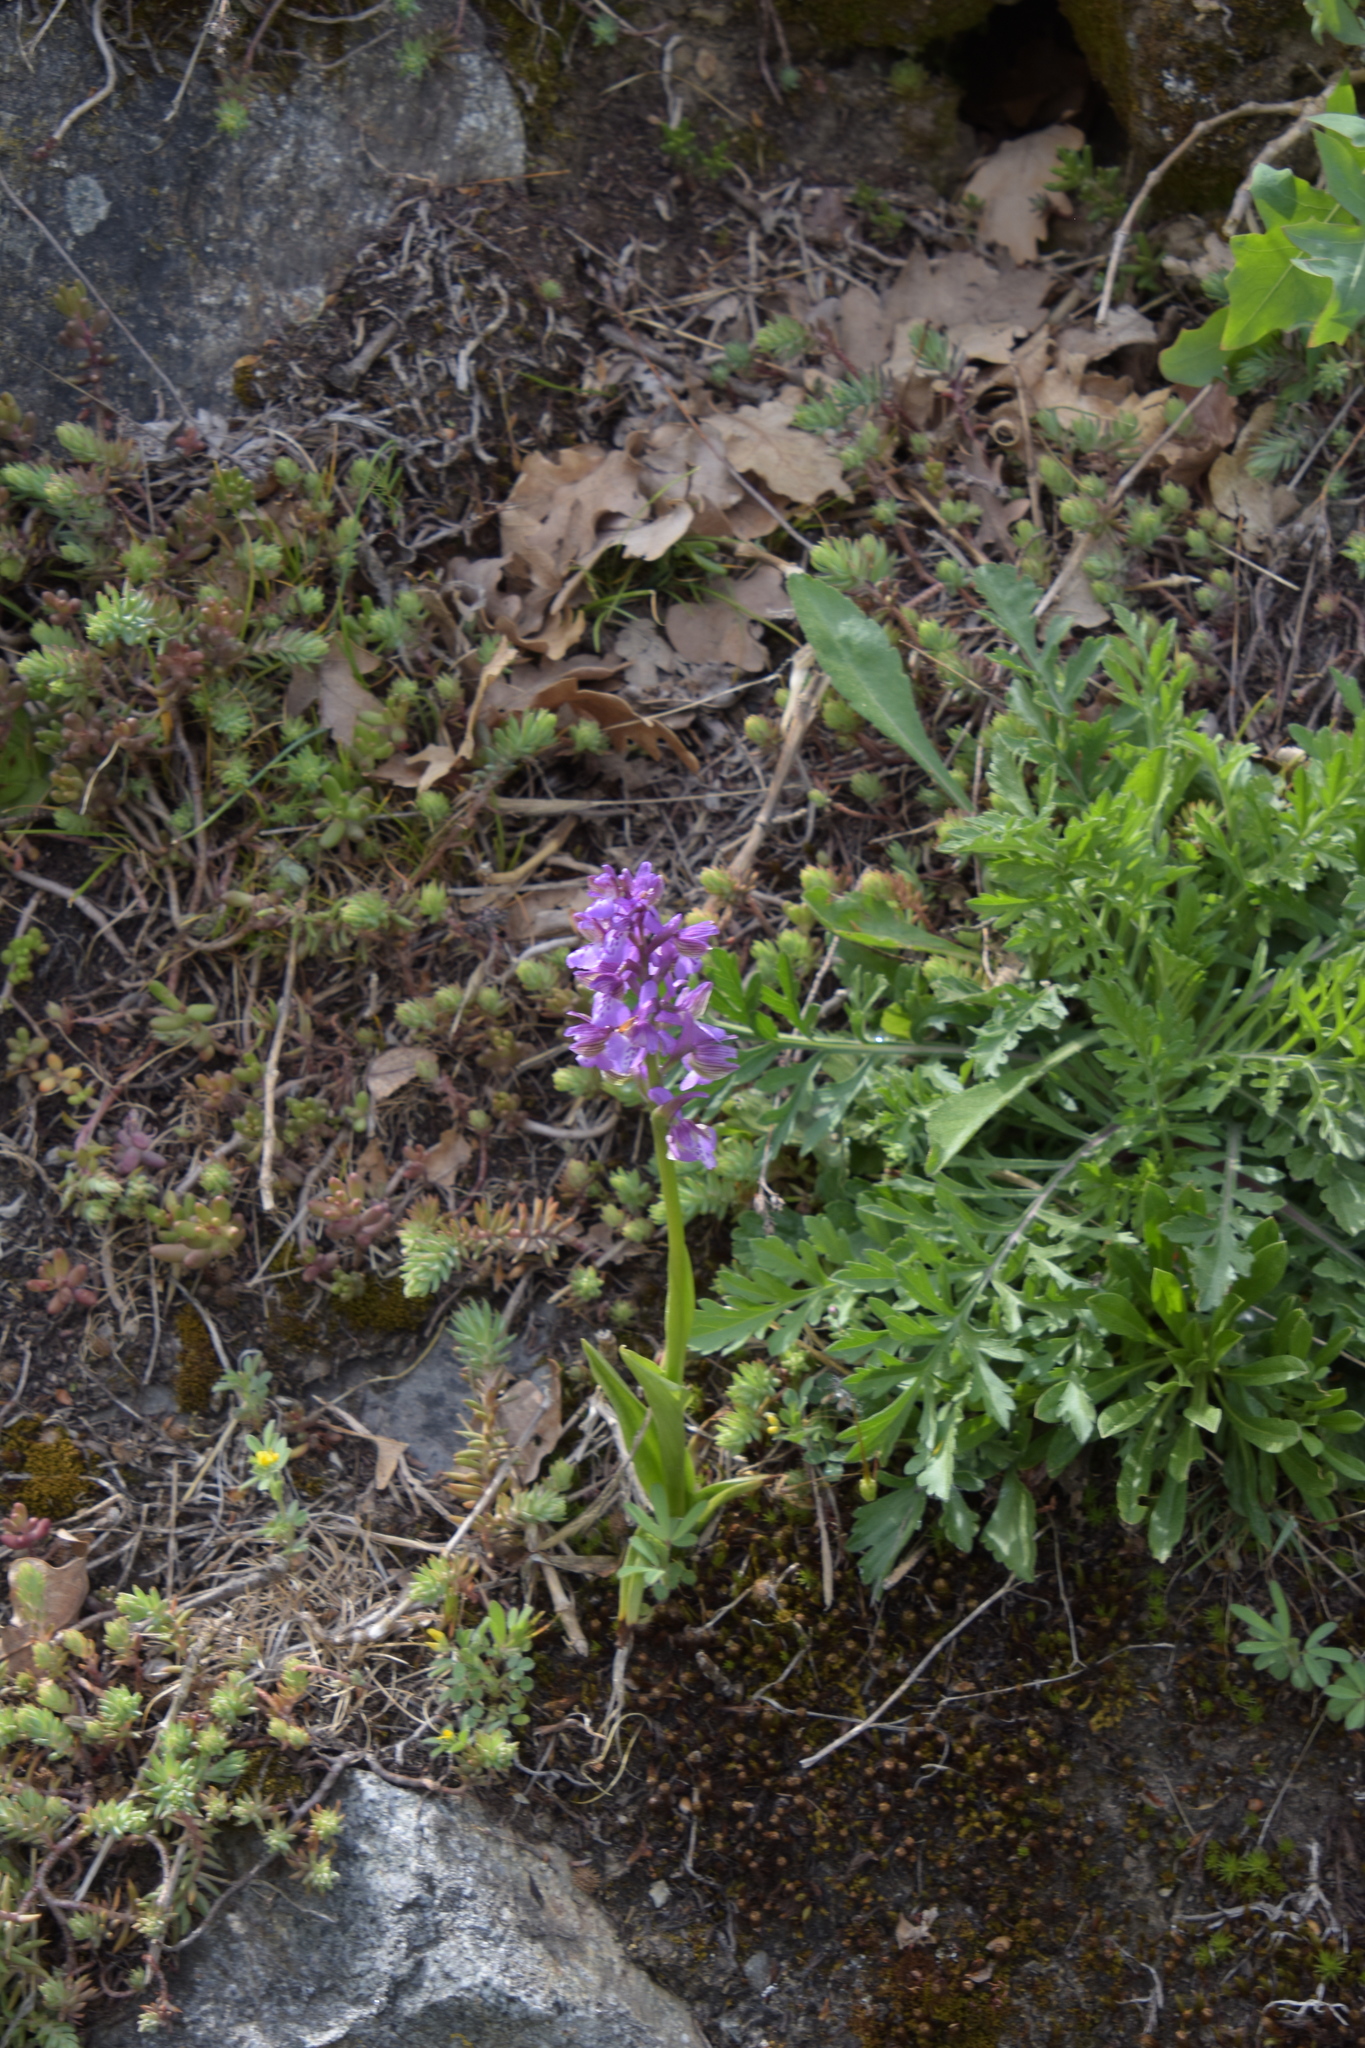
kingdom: Plantae
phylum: Tracheophyta
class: Liliopsida
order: Asparagales
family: Orchidaceae
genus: Anacamptis
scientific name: Anacamptis morio
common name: Green-winged orchid
